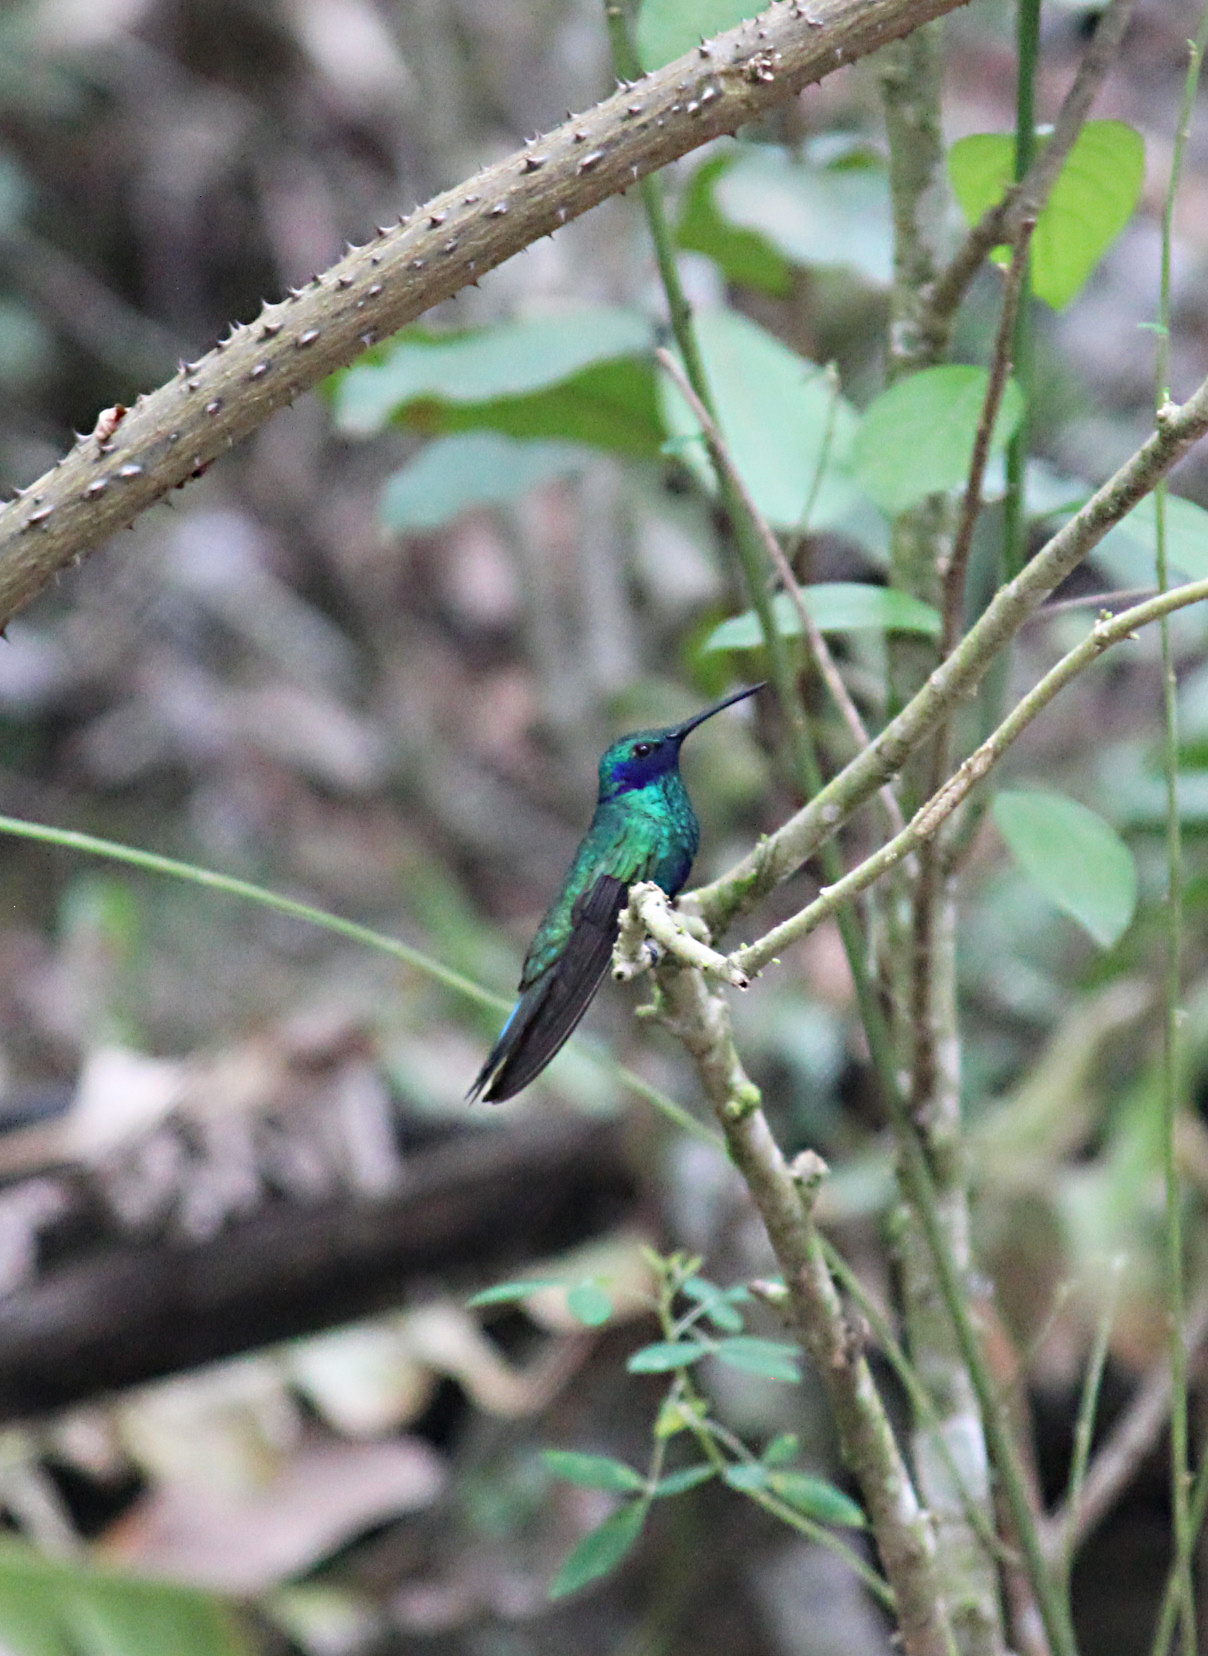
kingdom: Animalia
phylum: Chordata
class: Aves
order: Apodiformes
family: Trochilidae
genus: Colibri
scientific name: Colibri coruscans
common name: Sparkling violetear
